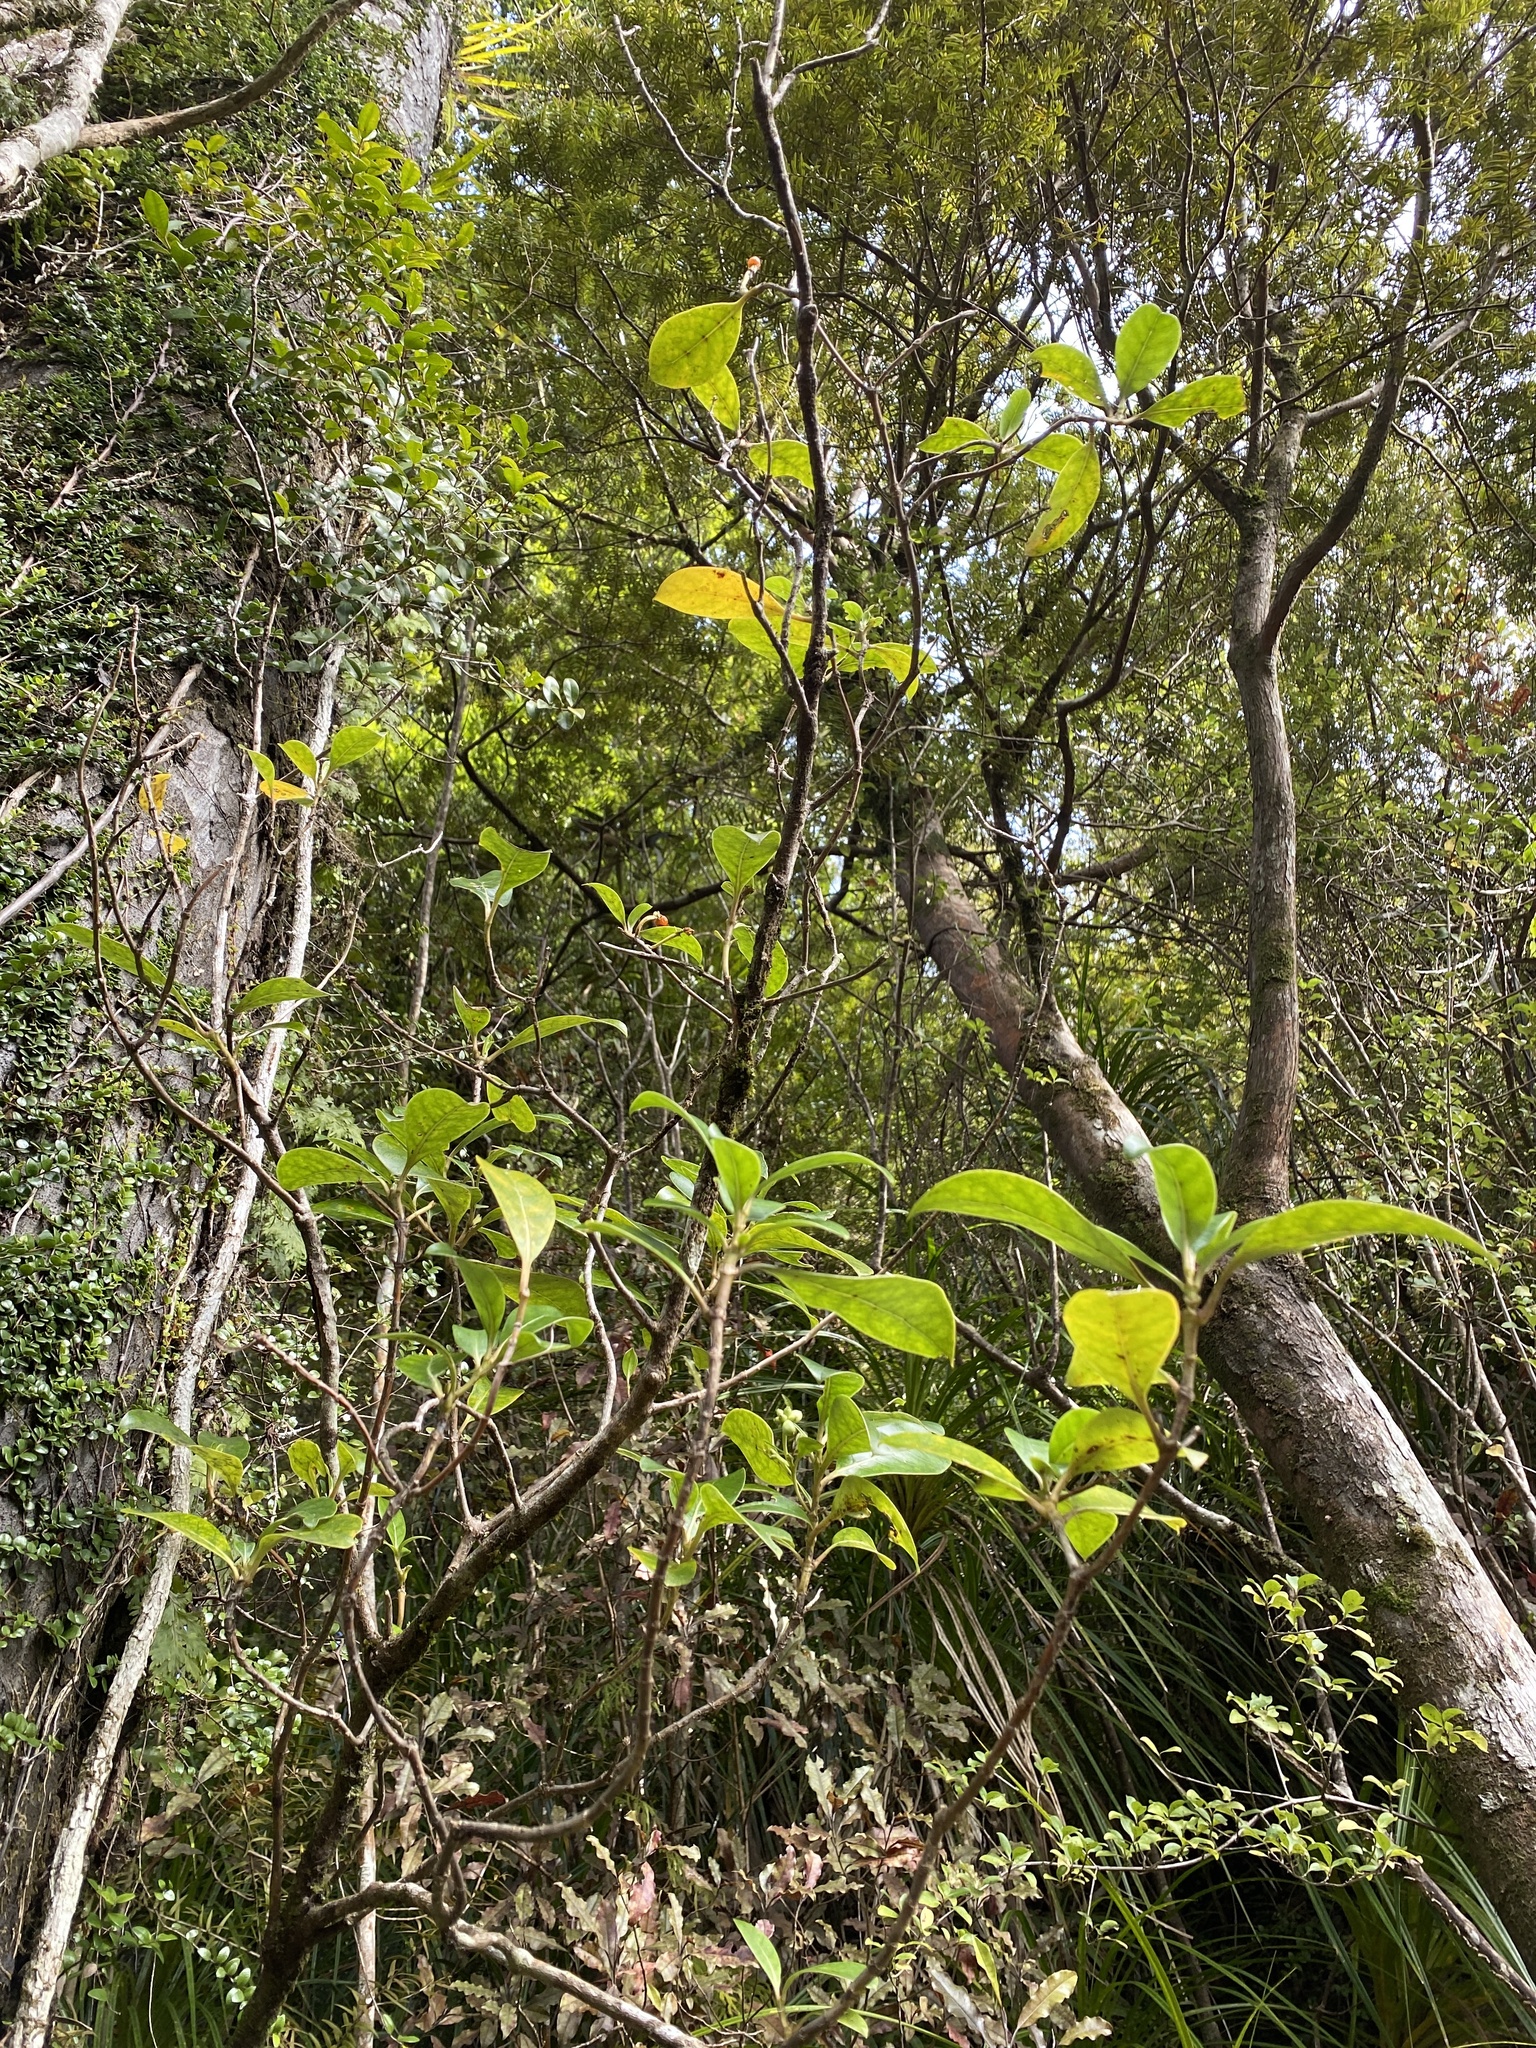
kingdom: Plantae
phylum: Tracheophyta
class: Magnoliopsida
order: Gentianales
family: Rubiaceae
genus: Coprosma
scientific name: Coprosma lucida
